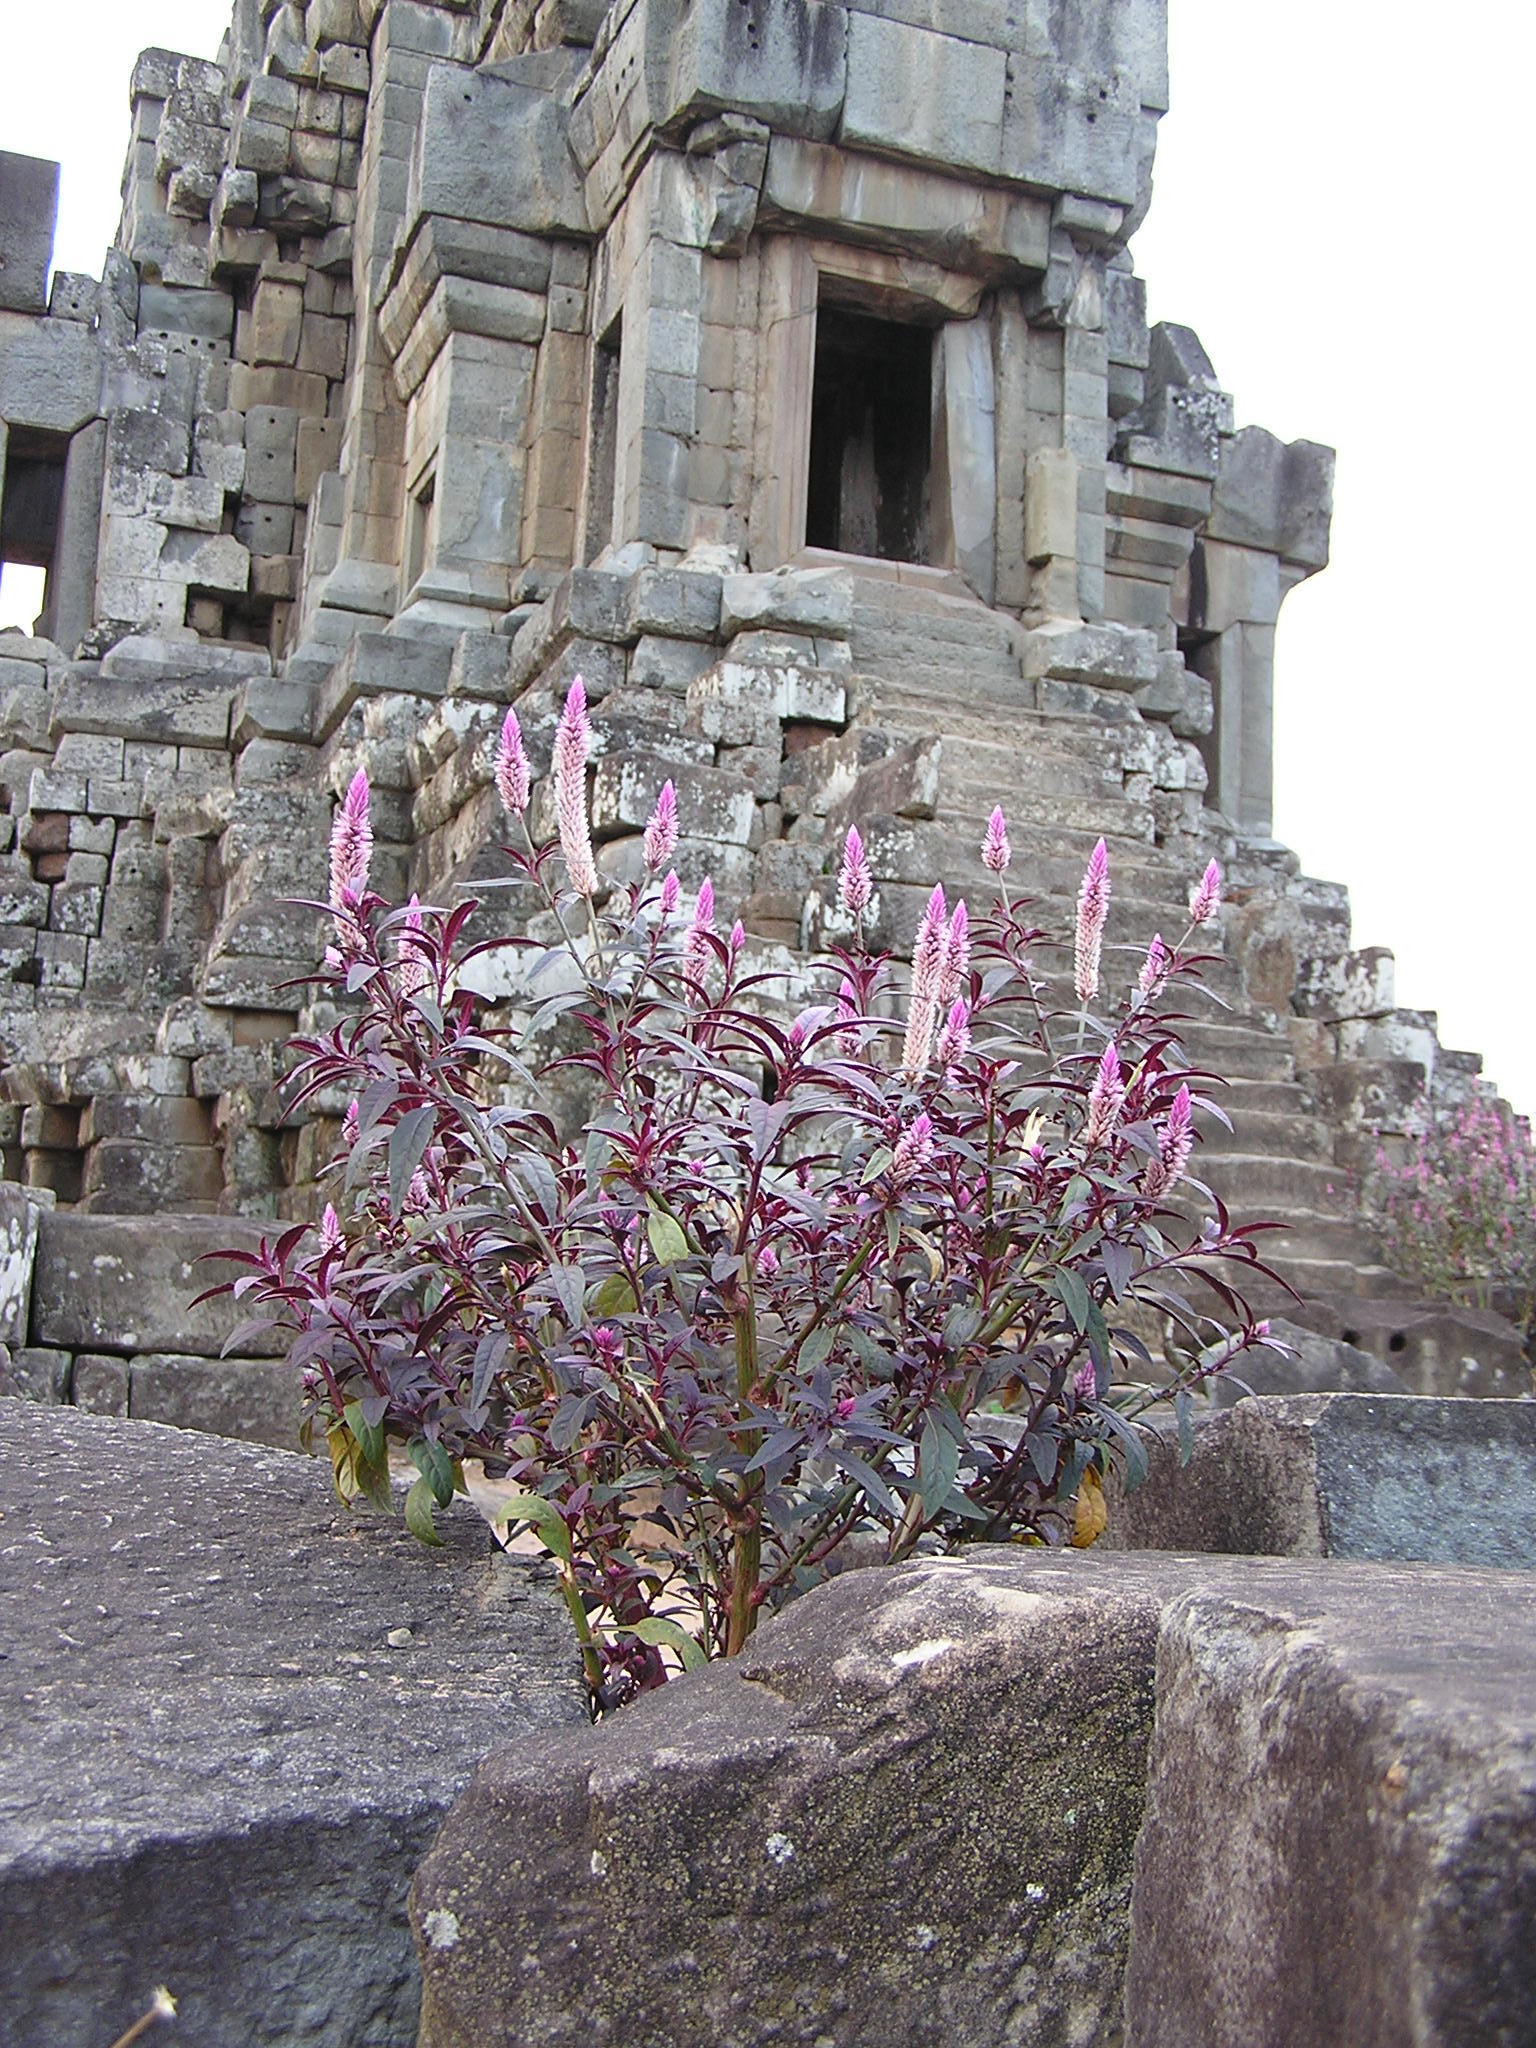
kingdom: Plantae
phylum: Tracheophyta
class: Magnoliopsida
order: Caryophyllales
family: Amaranthaceae
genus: Celosia
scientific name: Celosia argentea
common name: Feather cockscomb
